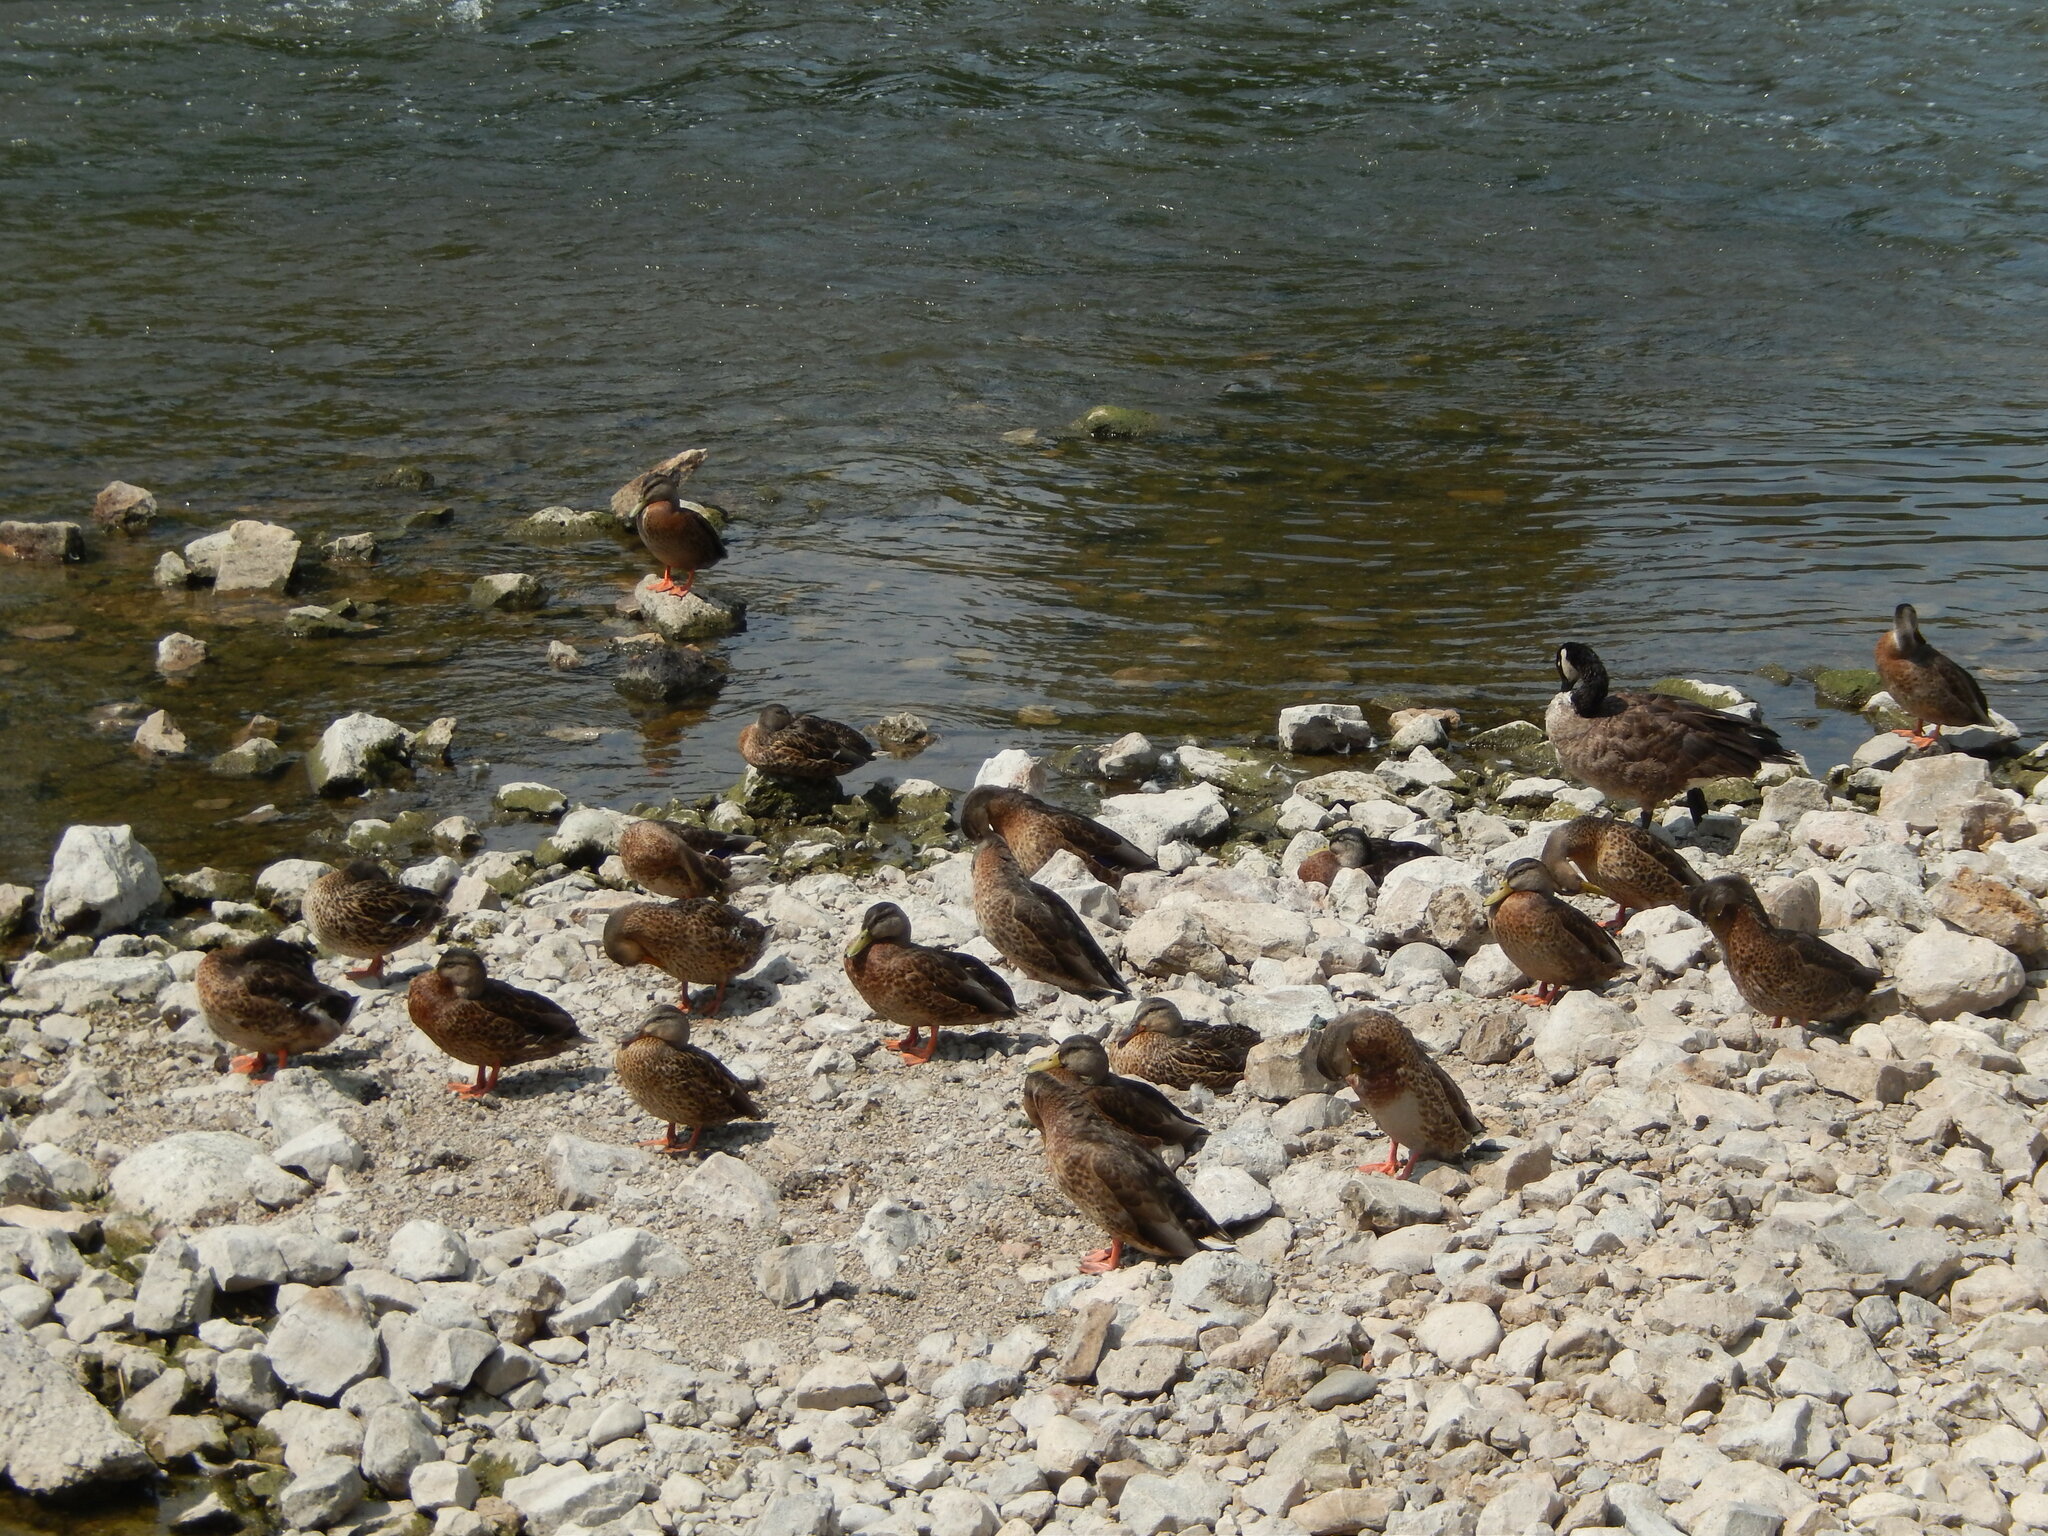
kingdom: Animalia
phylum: Chordata
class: Aves
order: Anseriformes
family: Anatidae
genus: Anas
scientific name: Anas platyrhynchos
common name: Mallard
